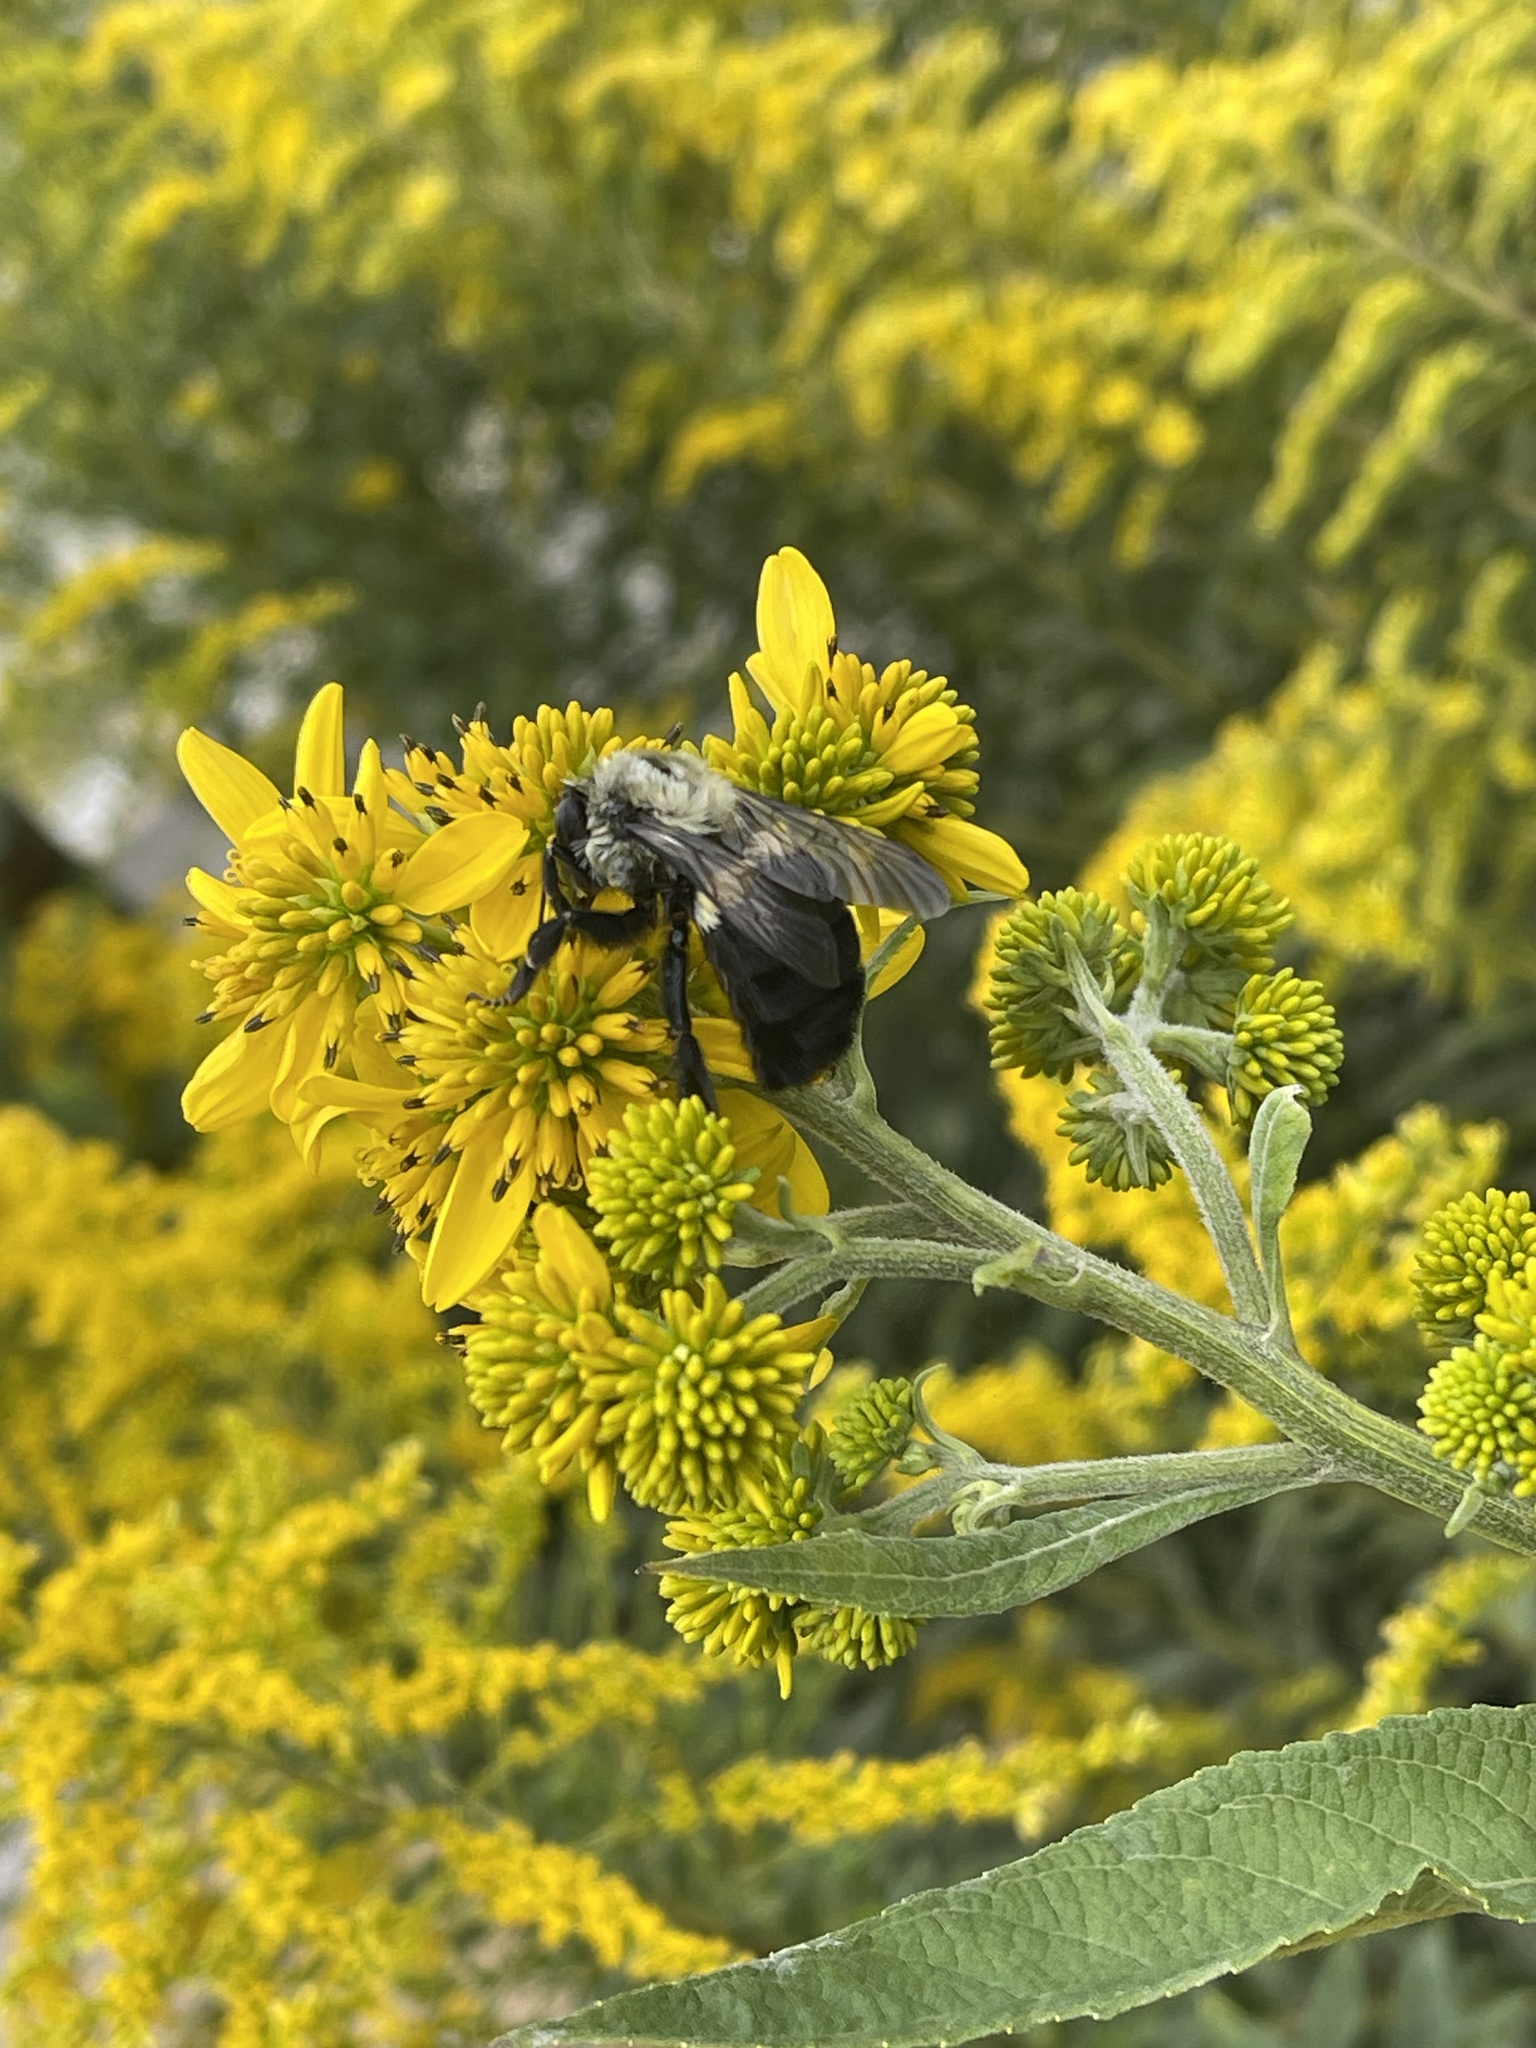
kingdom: Animalia
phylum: Arthropoda
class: Insecta
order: Hymenoptera
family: Apidae
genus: Bombus
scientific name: Bombus impatiens
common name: Common eastern bumble bee
